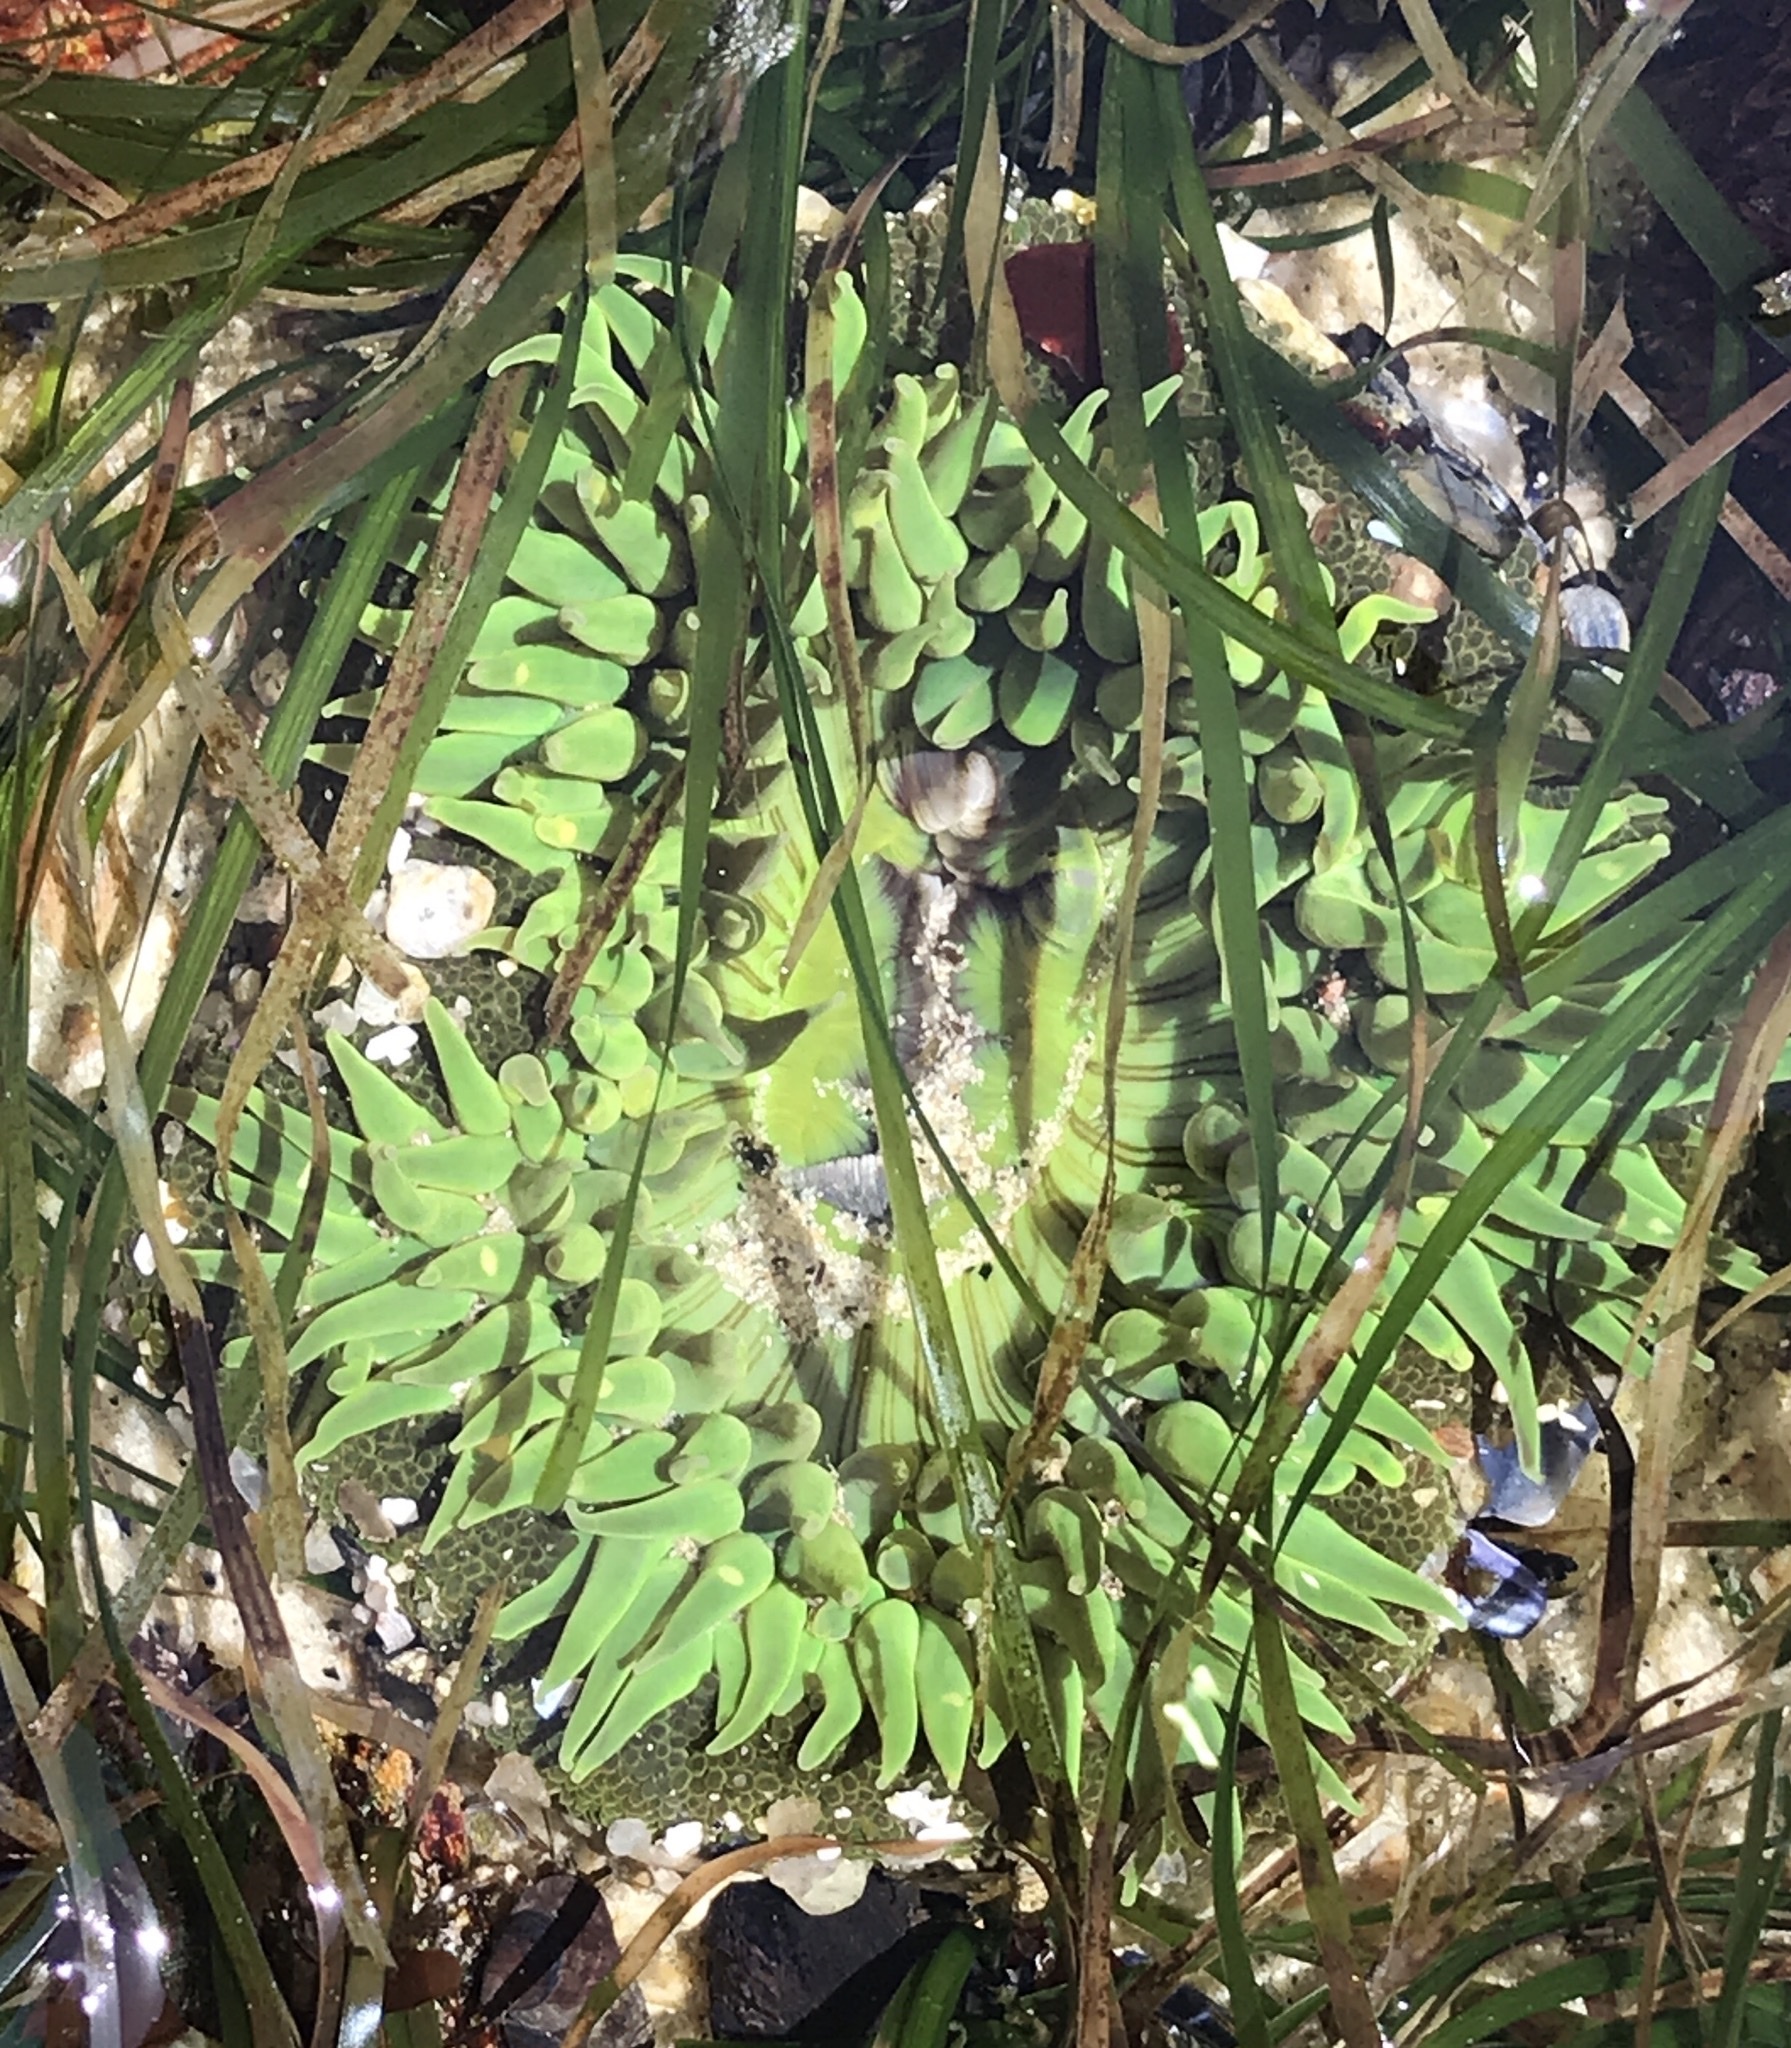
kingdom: Animalia
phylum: Cnidaria
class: Anthozoa
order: Actiniaria
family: Actiniidae
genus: Anthopleura
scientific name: Anthopleura sola
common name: Sun anemone
